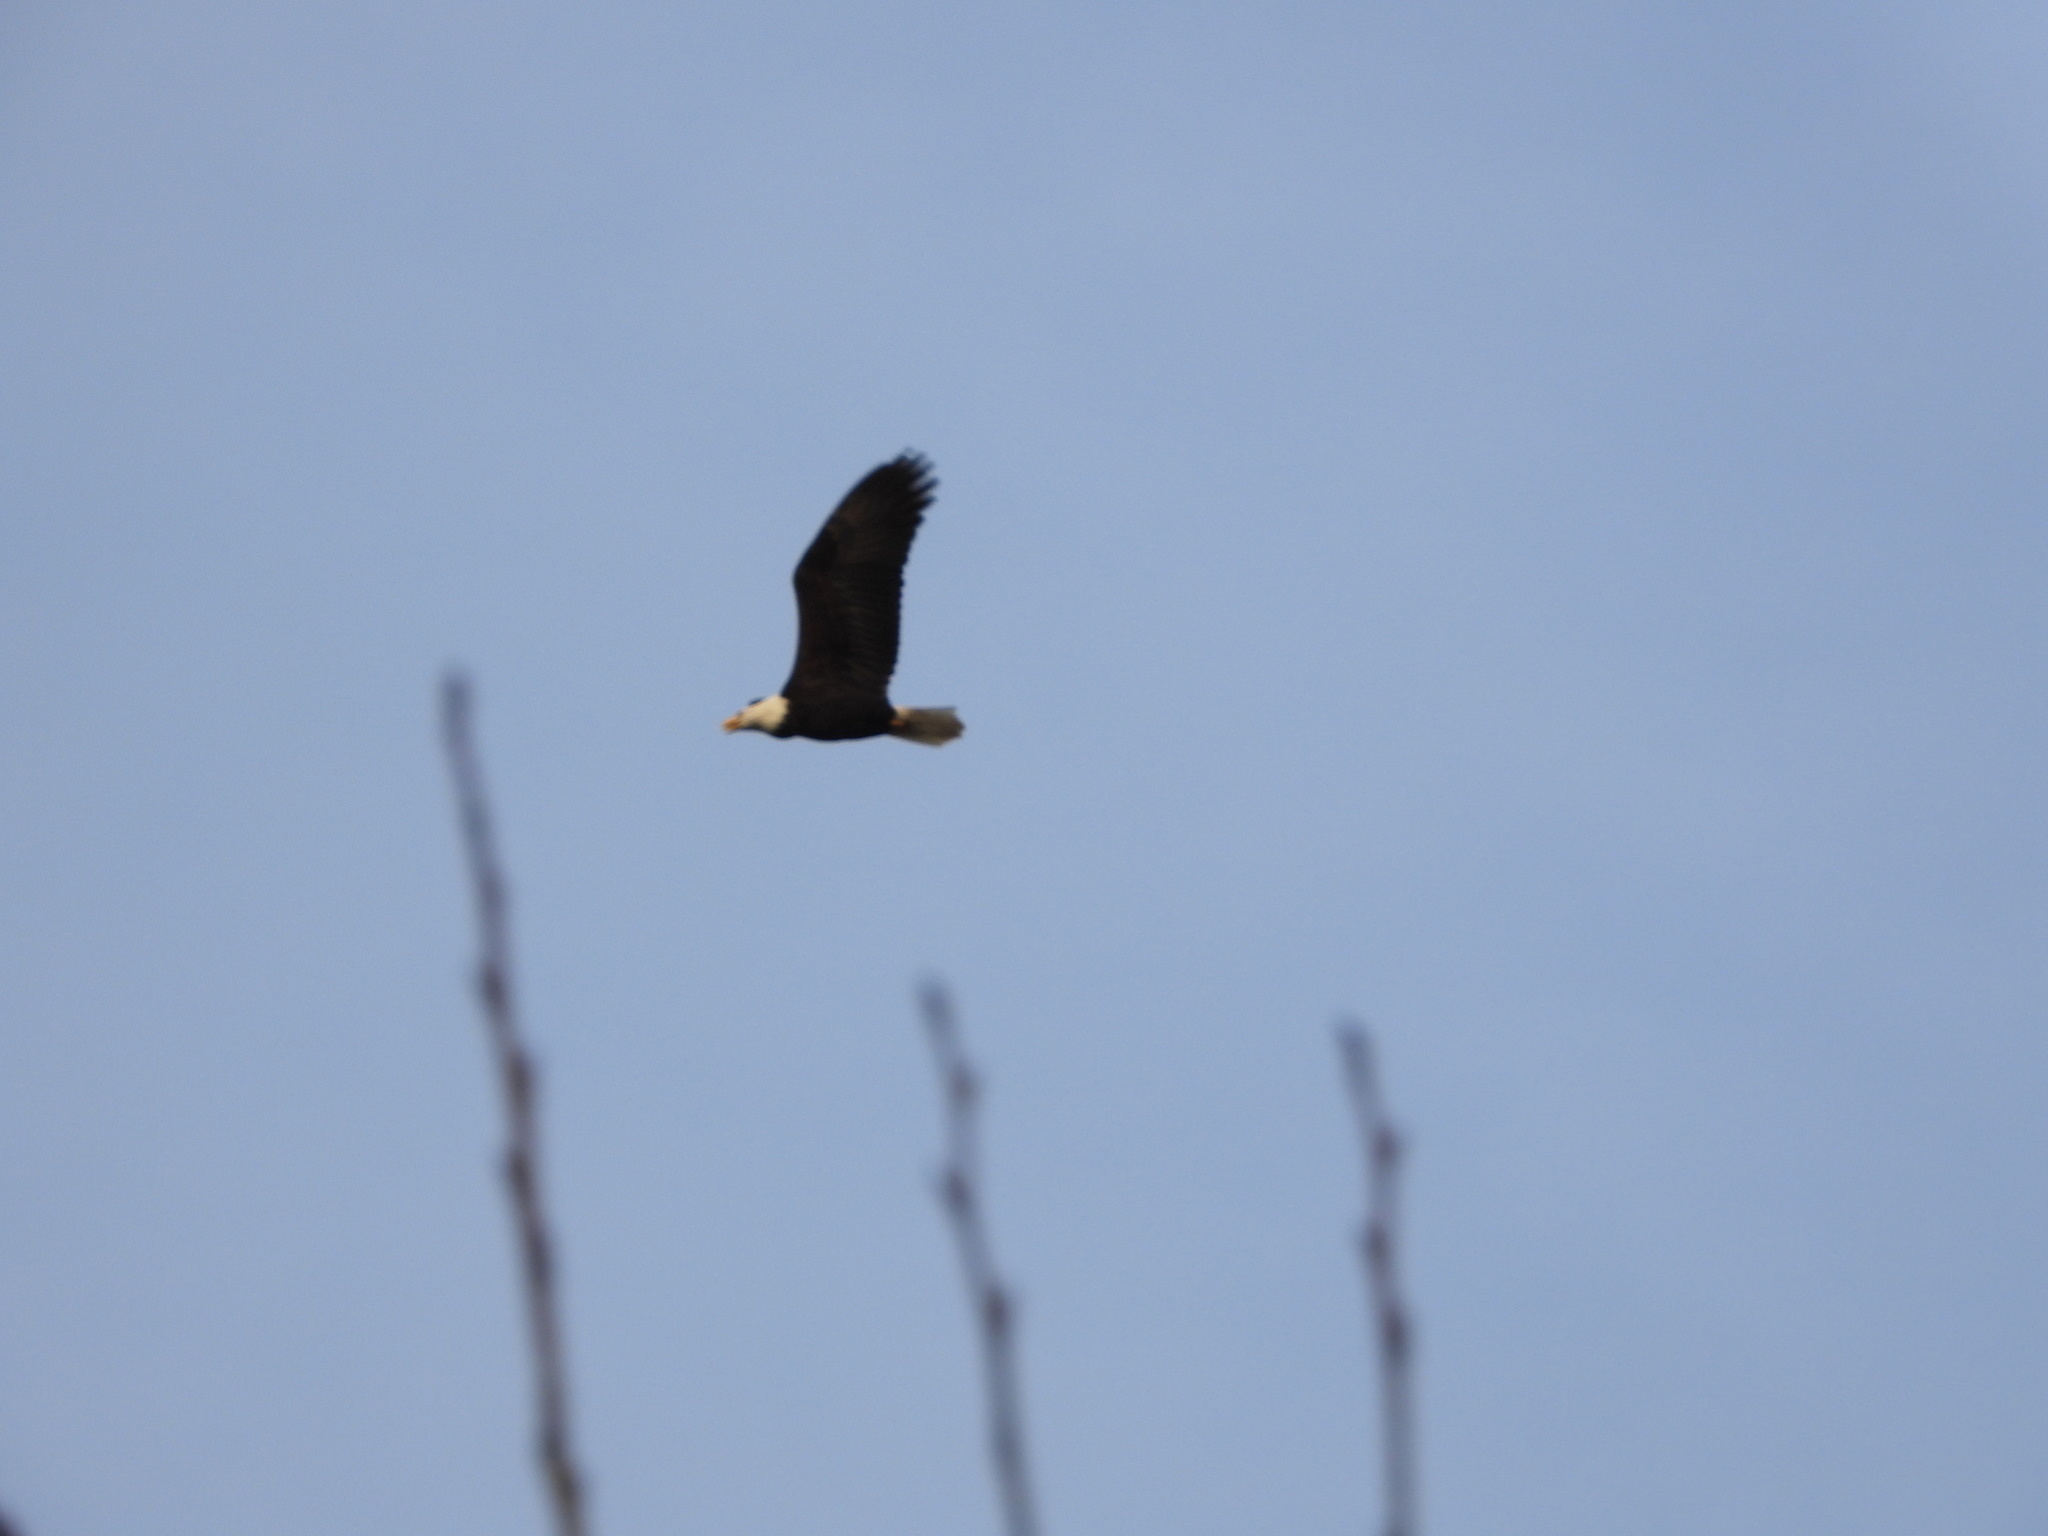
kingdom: Animalia
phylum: Chordata
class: Aves
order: Accipitriformes
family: Accipitridae
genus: Haliaeetus
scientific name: Haliaeetus leucocephalus
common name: Bald eagle
